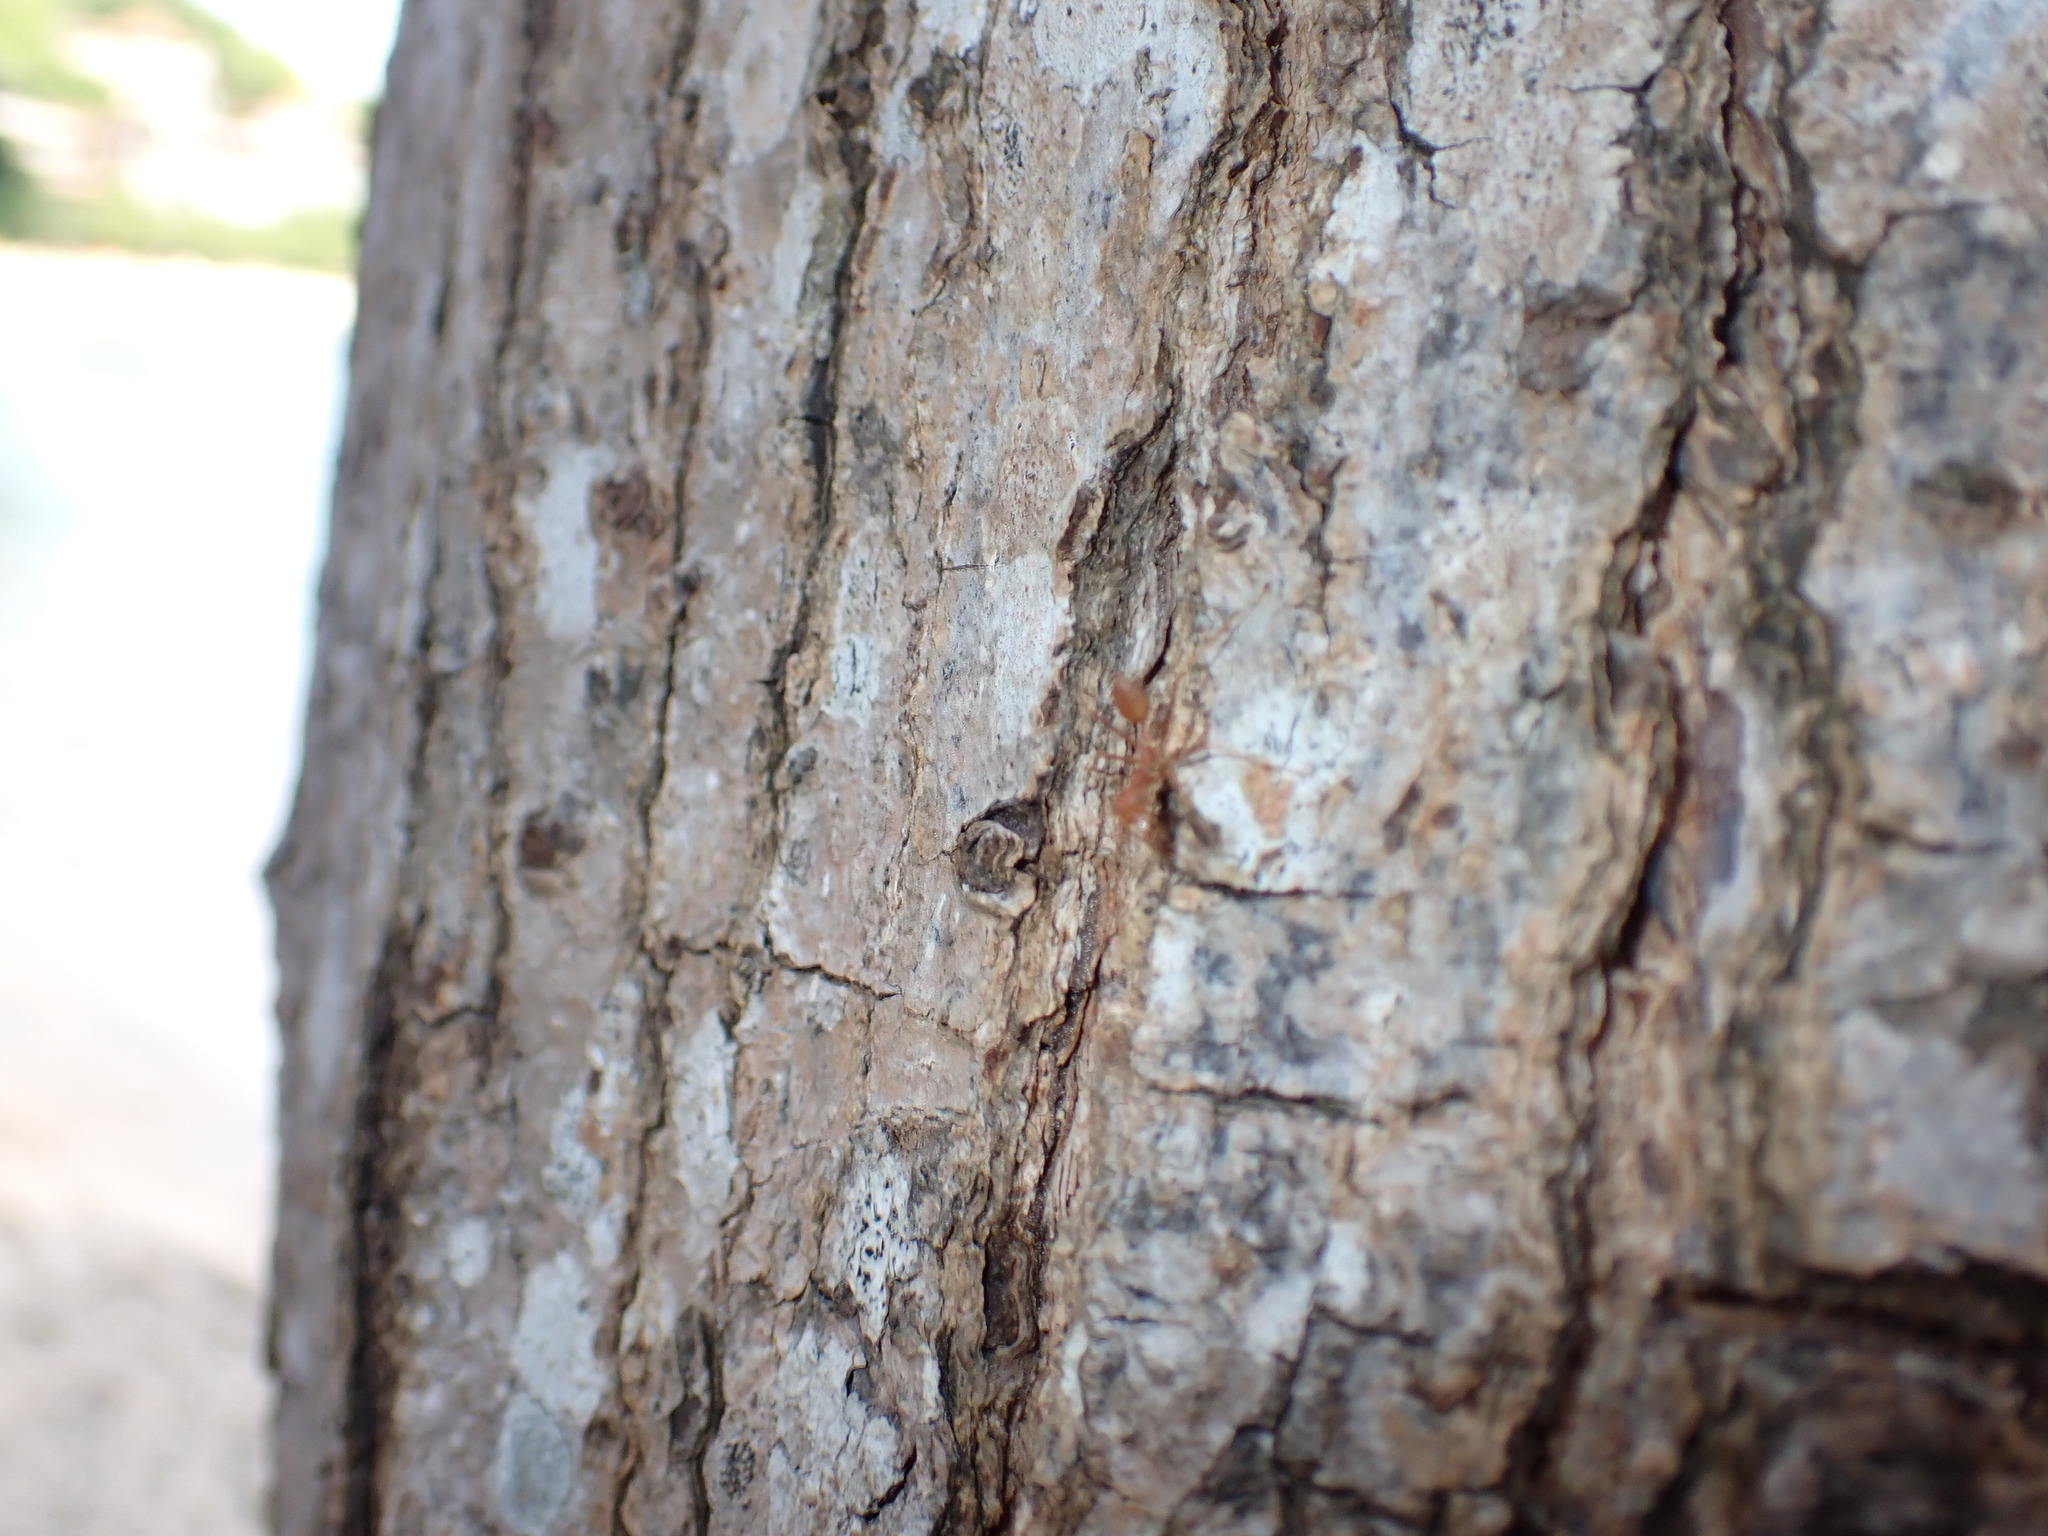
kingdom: Animalia
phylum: Arthropoda
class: Insecta
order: Hymenoptera
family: Formicidae
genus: Oecophylla
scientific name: Oecophylla smaragdina
